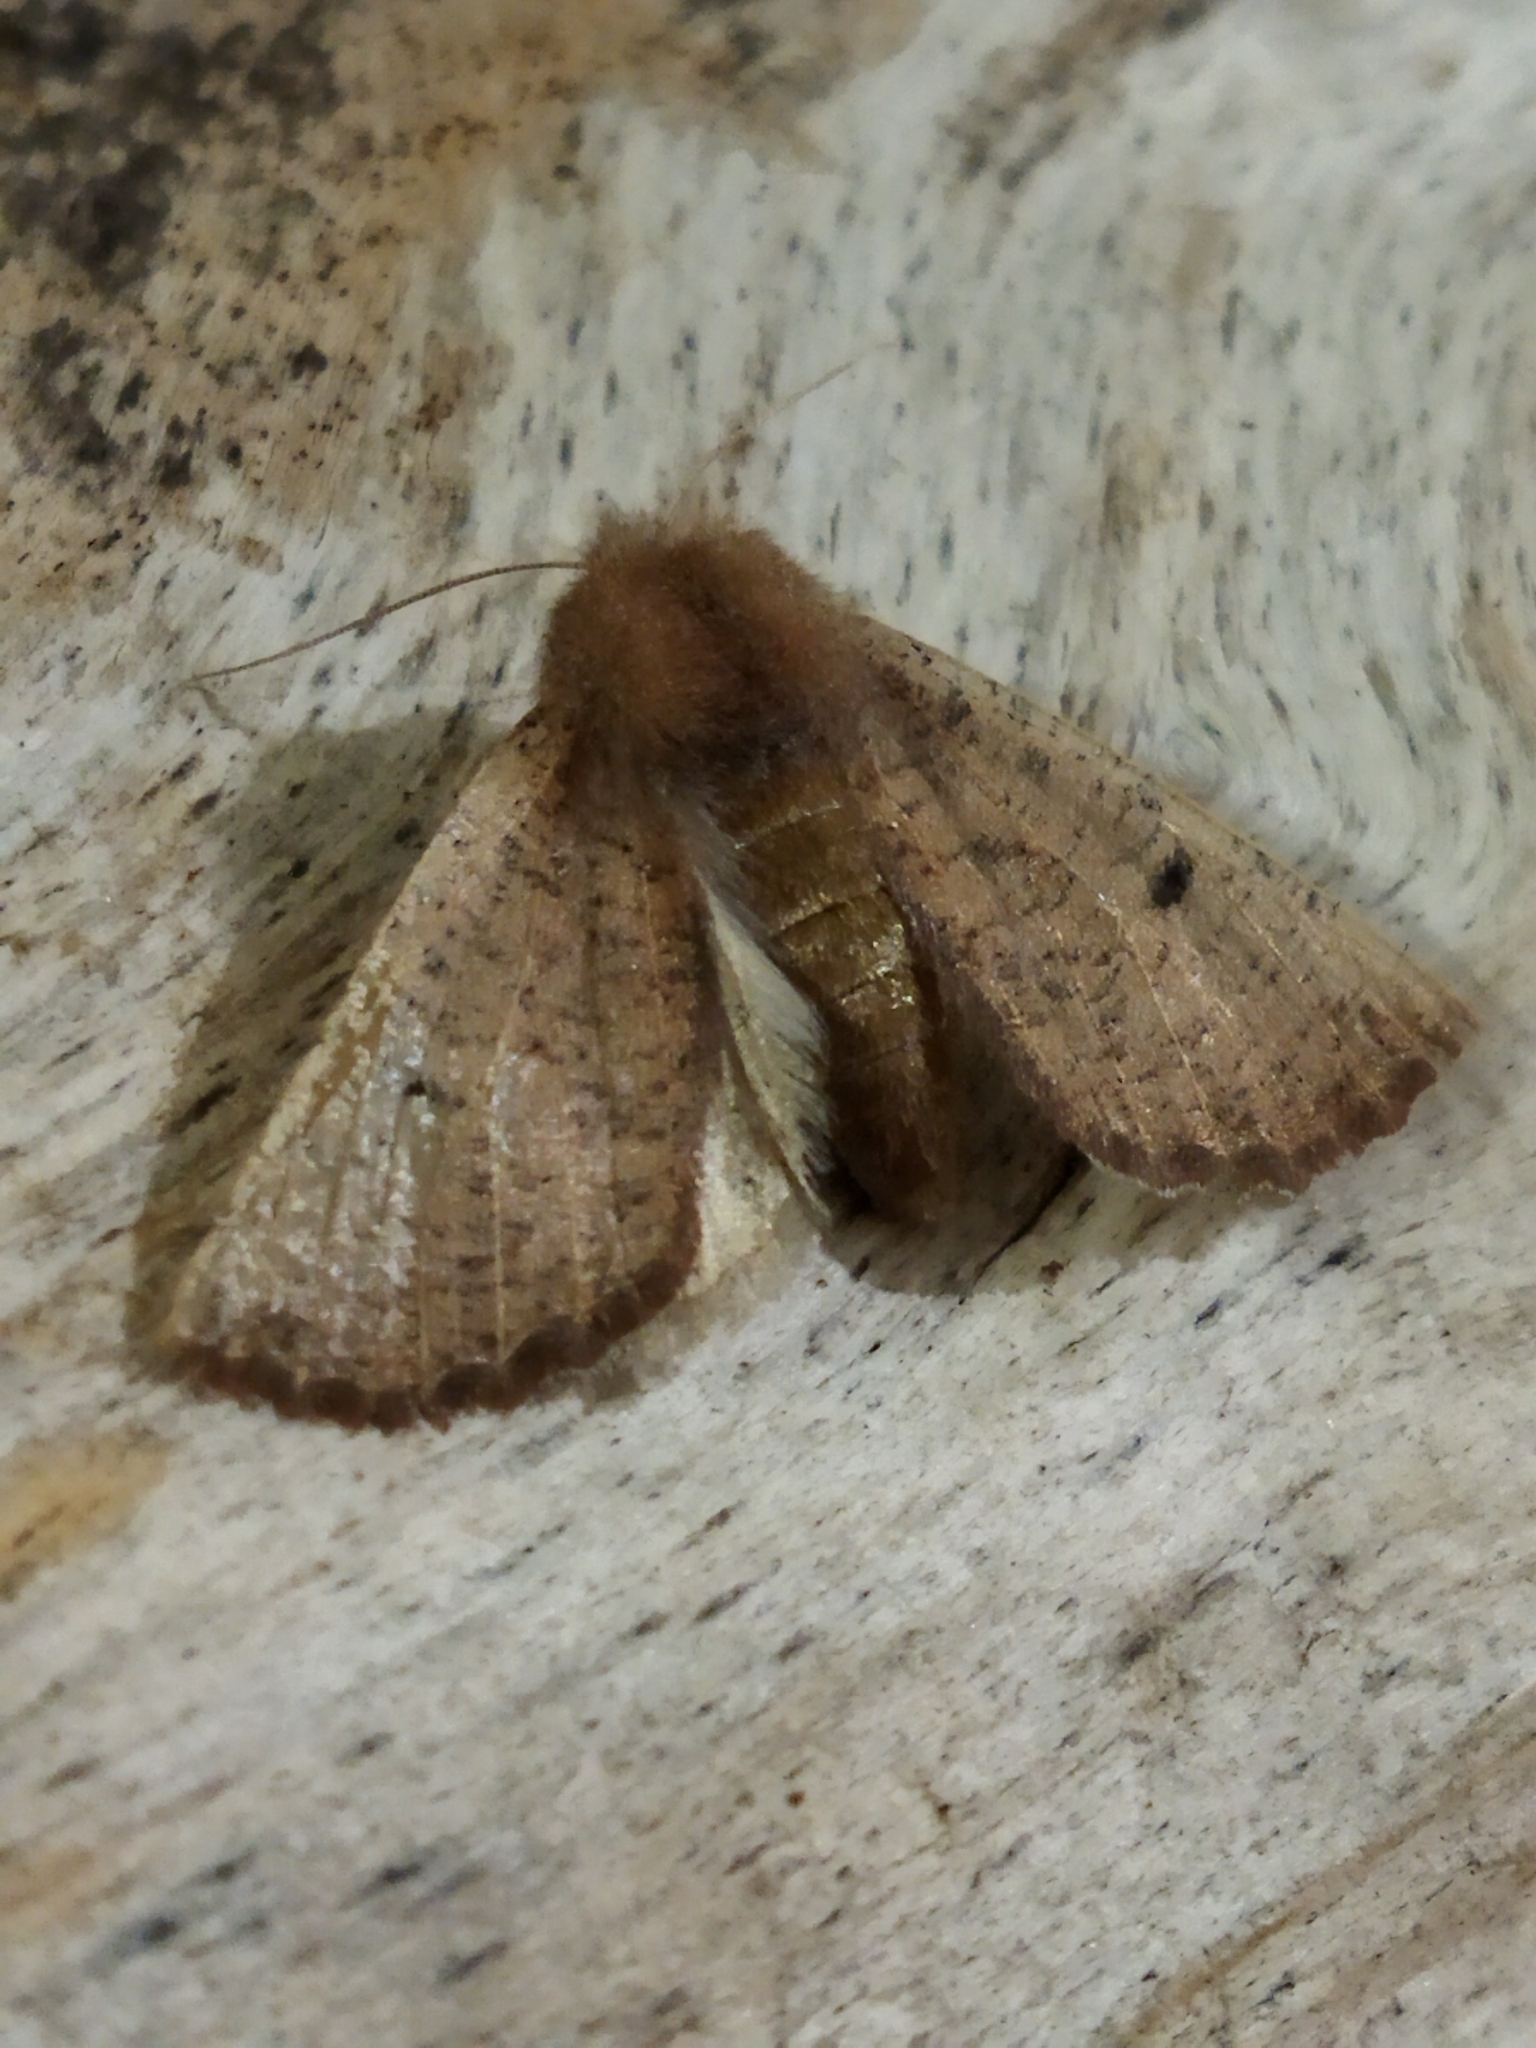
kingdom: Animalia
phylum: Arthropoda
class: Insecta
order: Lepidoptera
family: Geometridae
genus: Dasycorsa
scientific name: Dasycorsa modesta
